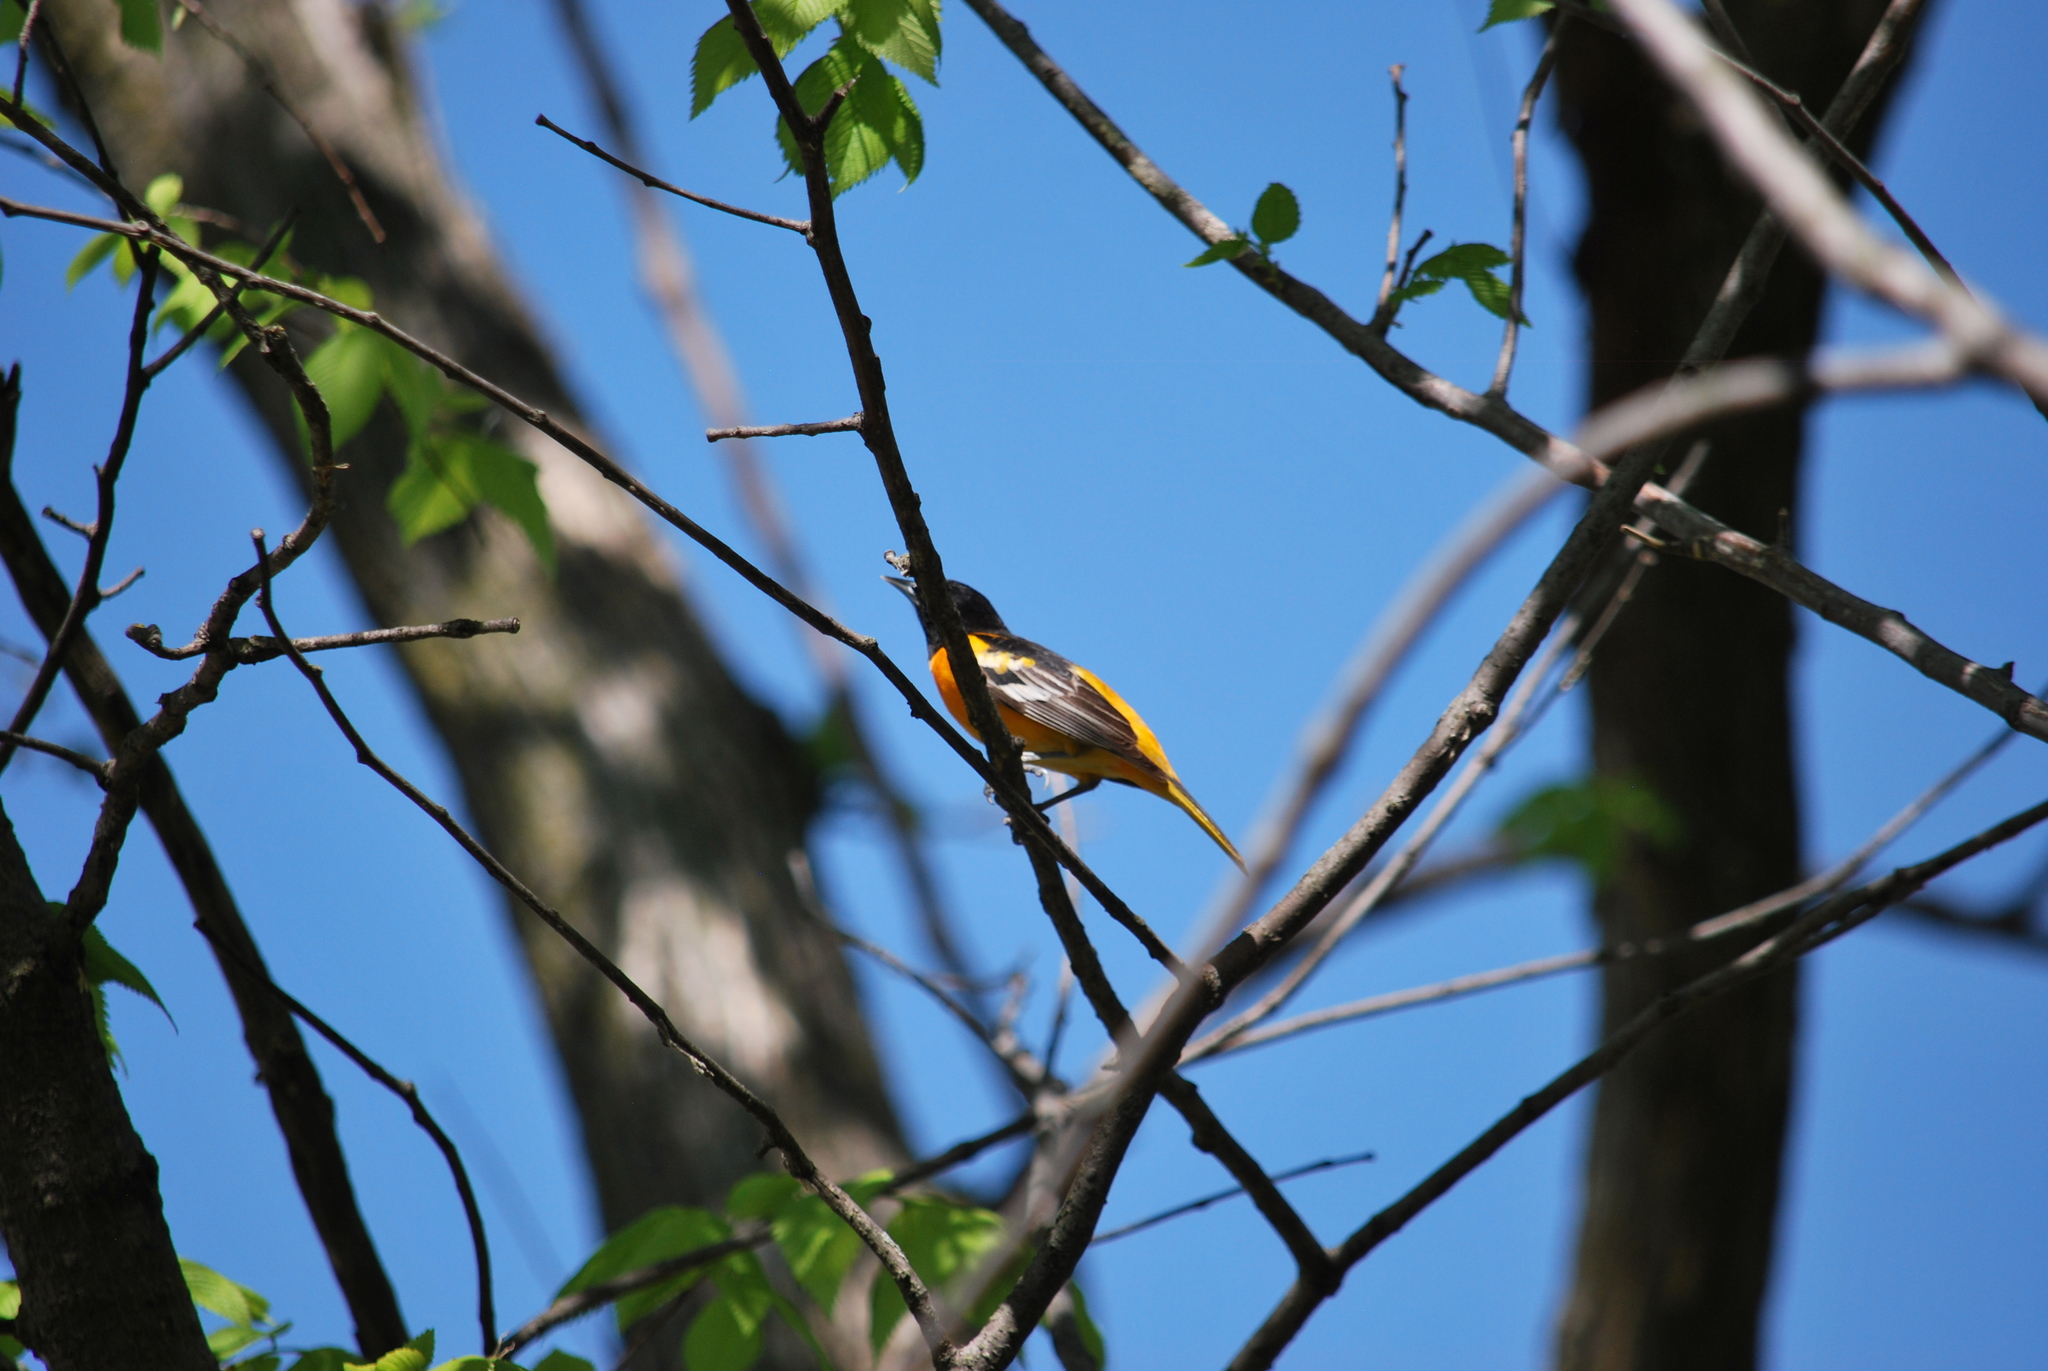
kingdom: Animalia
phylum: Chordata
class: Aves
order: Passeriformes
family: Icteridae
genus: Icterus
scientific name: Icterus galbula
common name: Baltimore oriole
